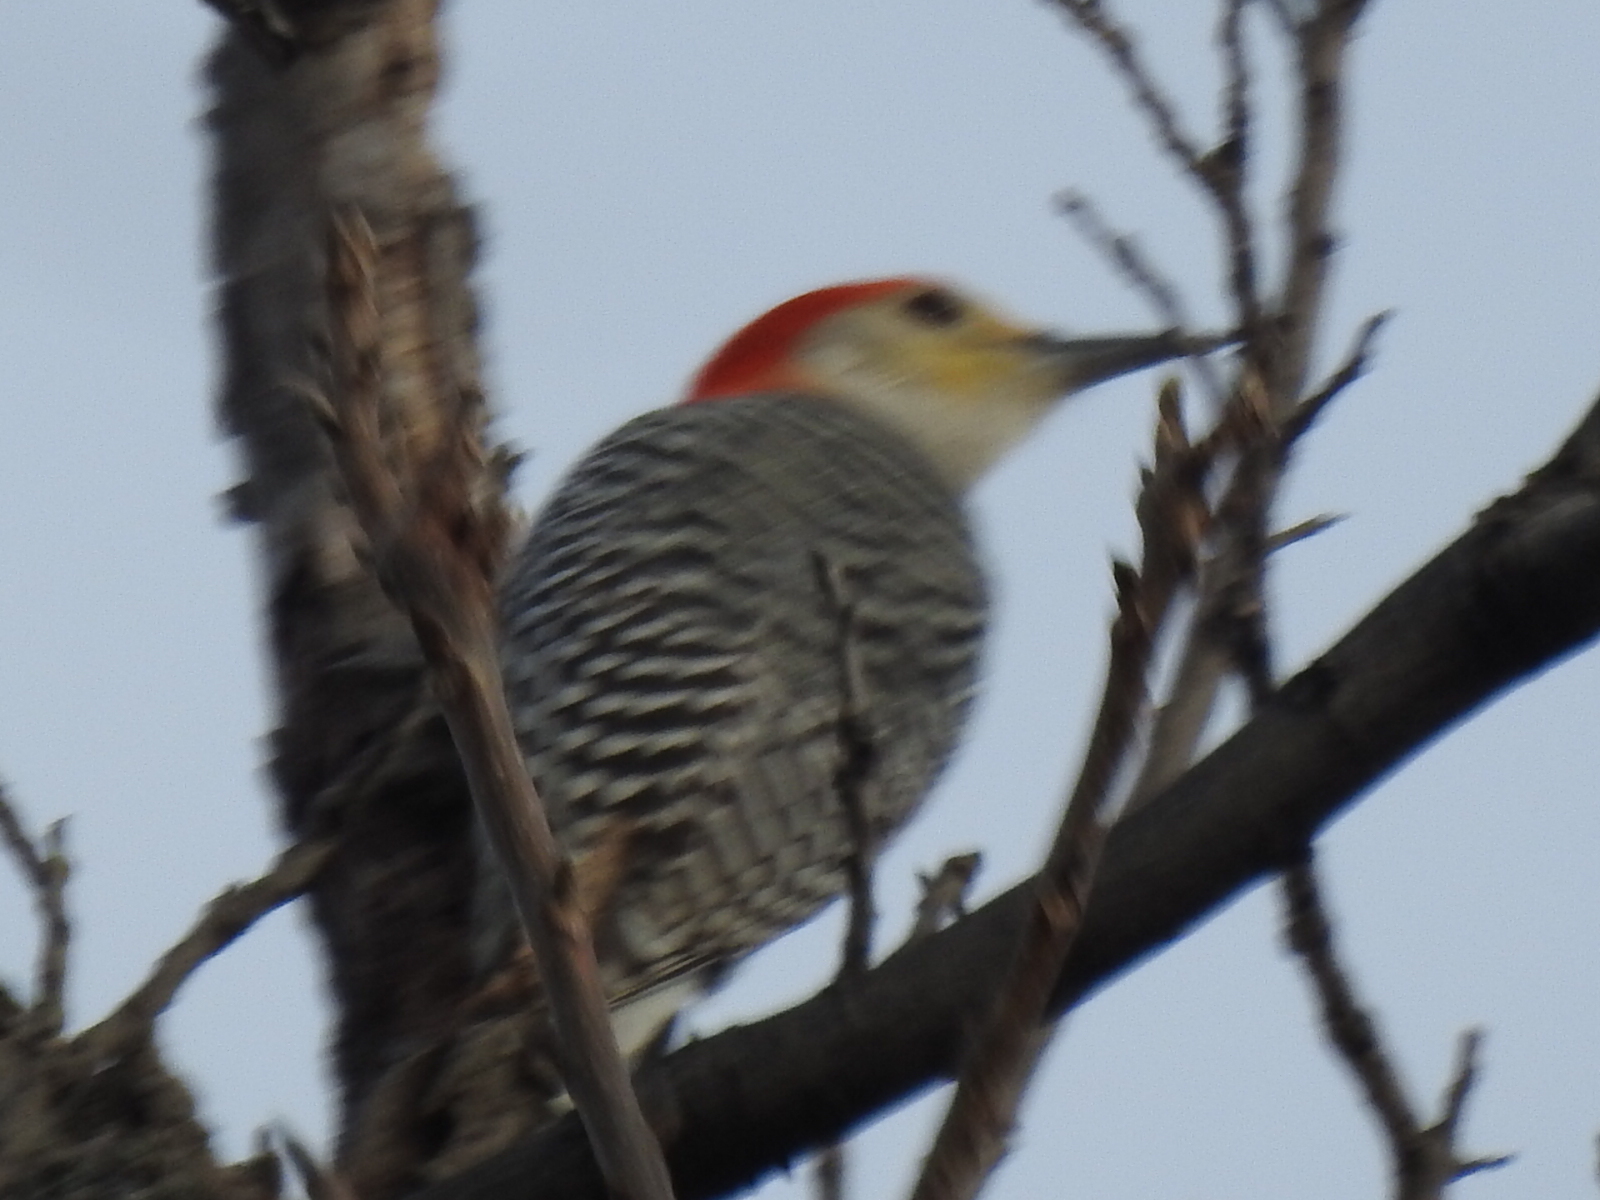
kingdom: Animalia
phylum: Chordata
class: Aves
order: Piciformes
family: Picidae
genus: Melanerpes
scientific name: Melanerpes carolinus
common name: Red-bellied woodpecker
